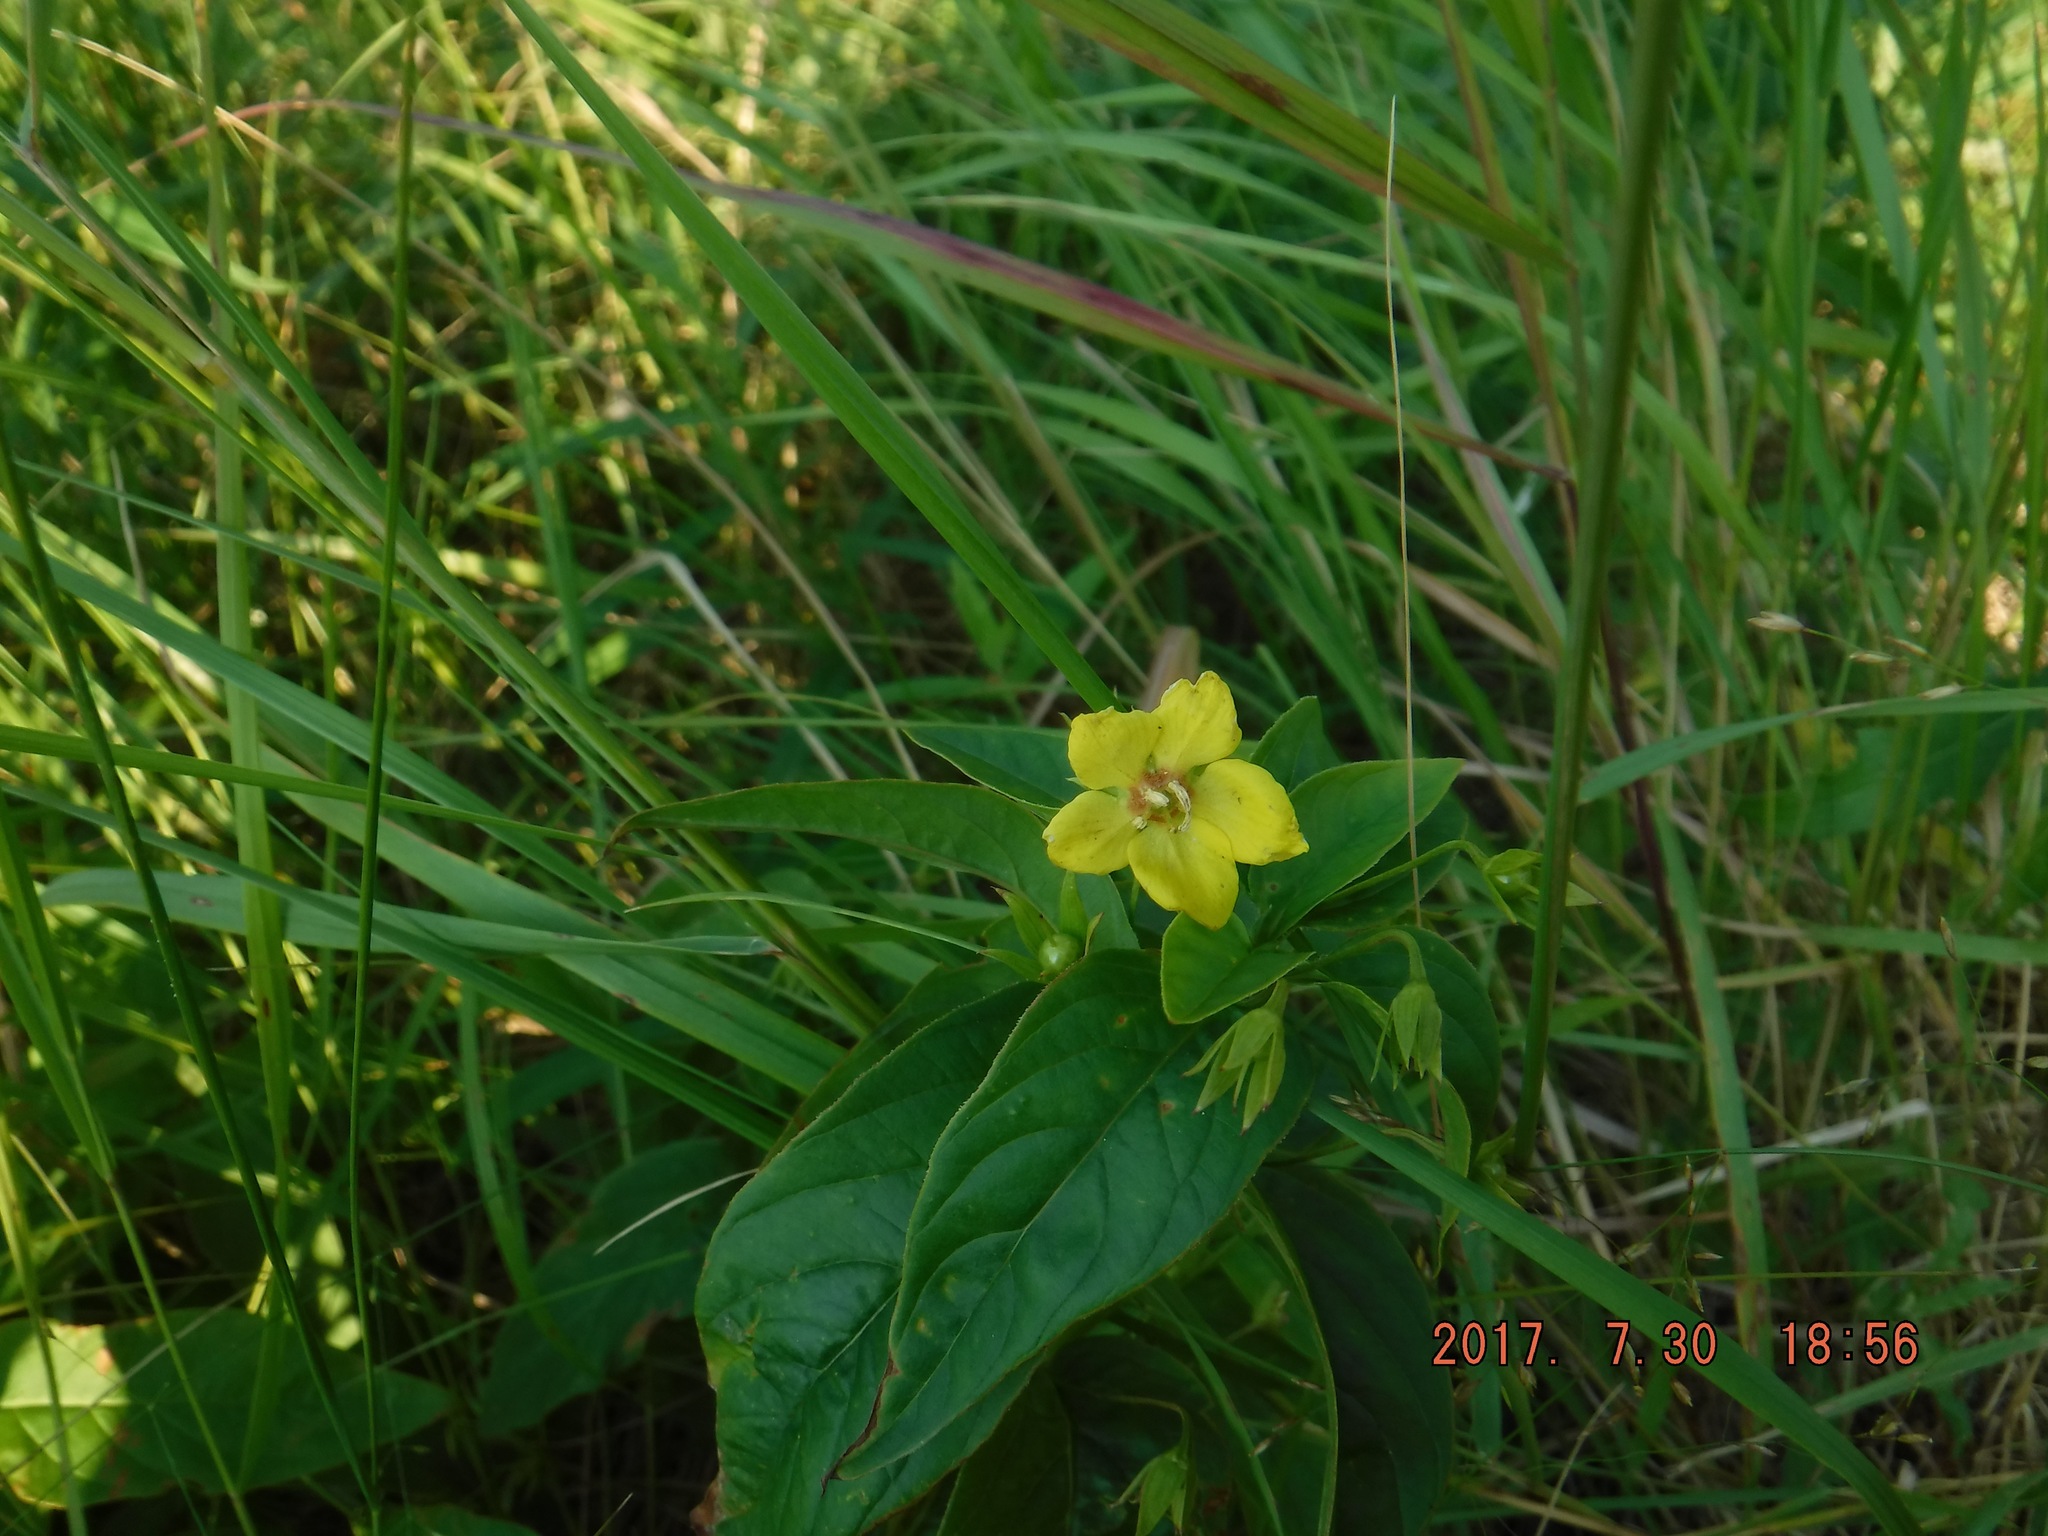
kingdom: Plantae
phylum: Tracheophyta
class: Magnoliopsida
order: Ericales
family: Primulaceae
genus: Lysimachia
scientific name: Lysimachia ciliata
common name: Fringed loosestrife
